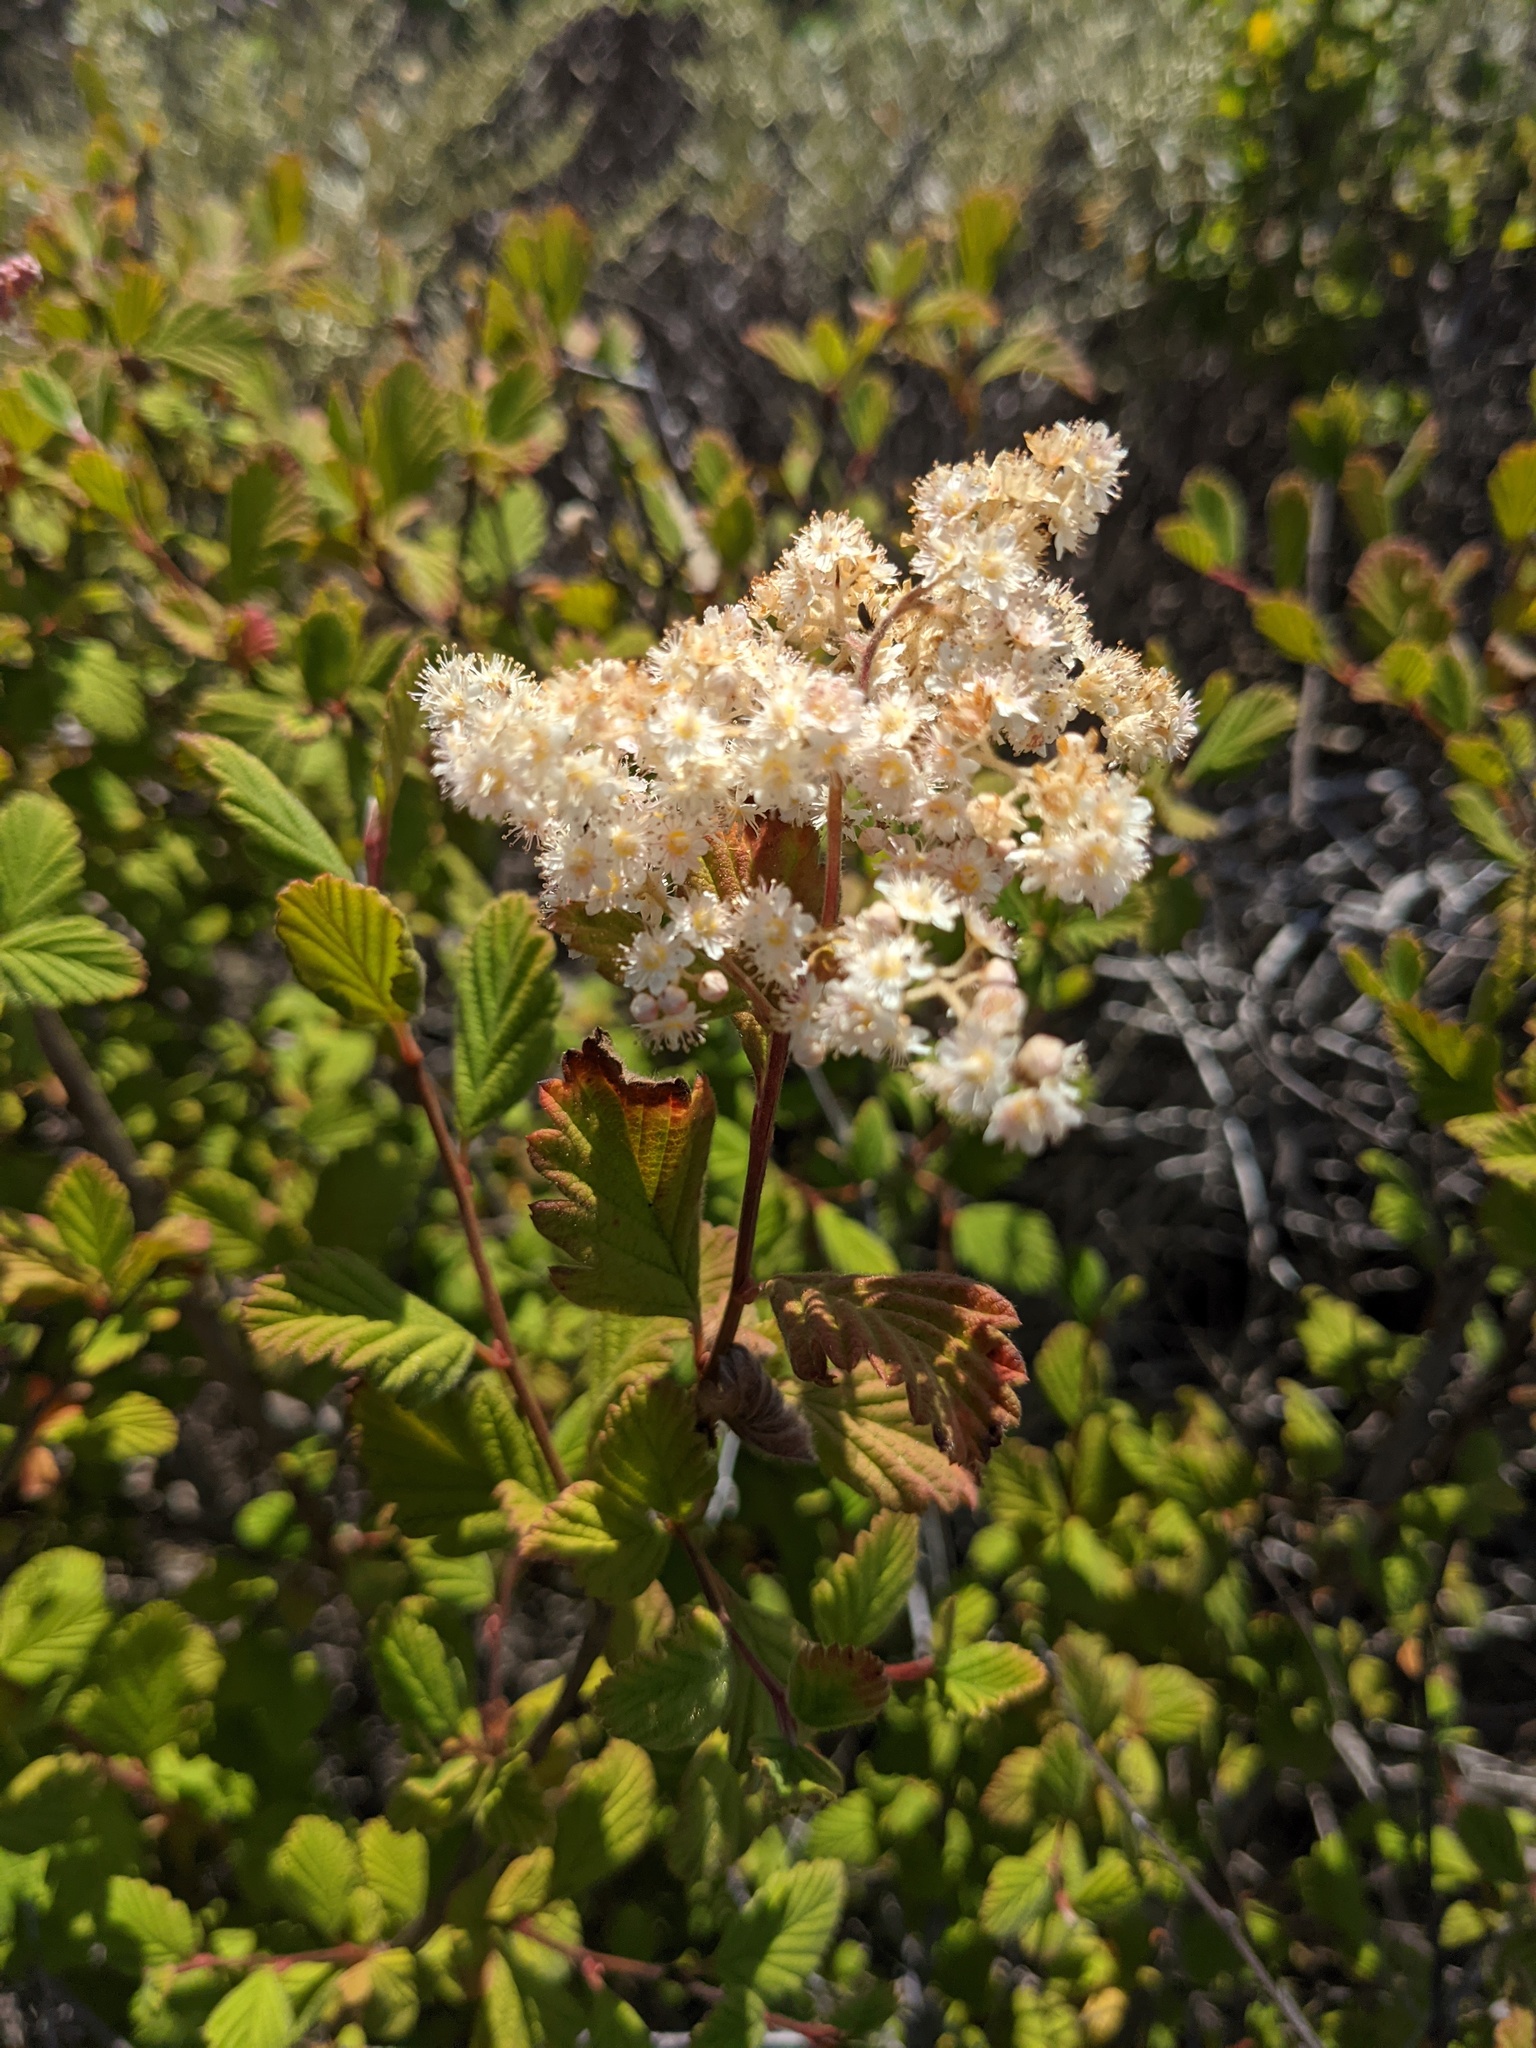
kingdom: Plantae
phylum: Tracheophyta
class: Magnoliopsida
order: Rosales
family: Rosaceae
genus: Holodiscus
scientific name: Holodiscus discolor
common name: Oceanspray
